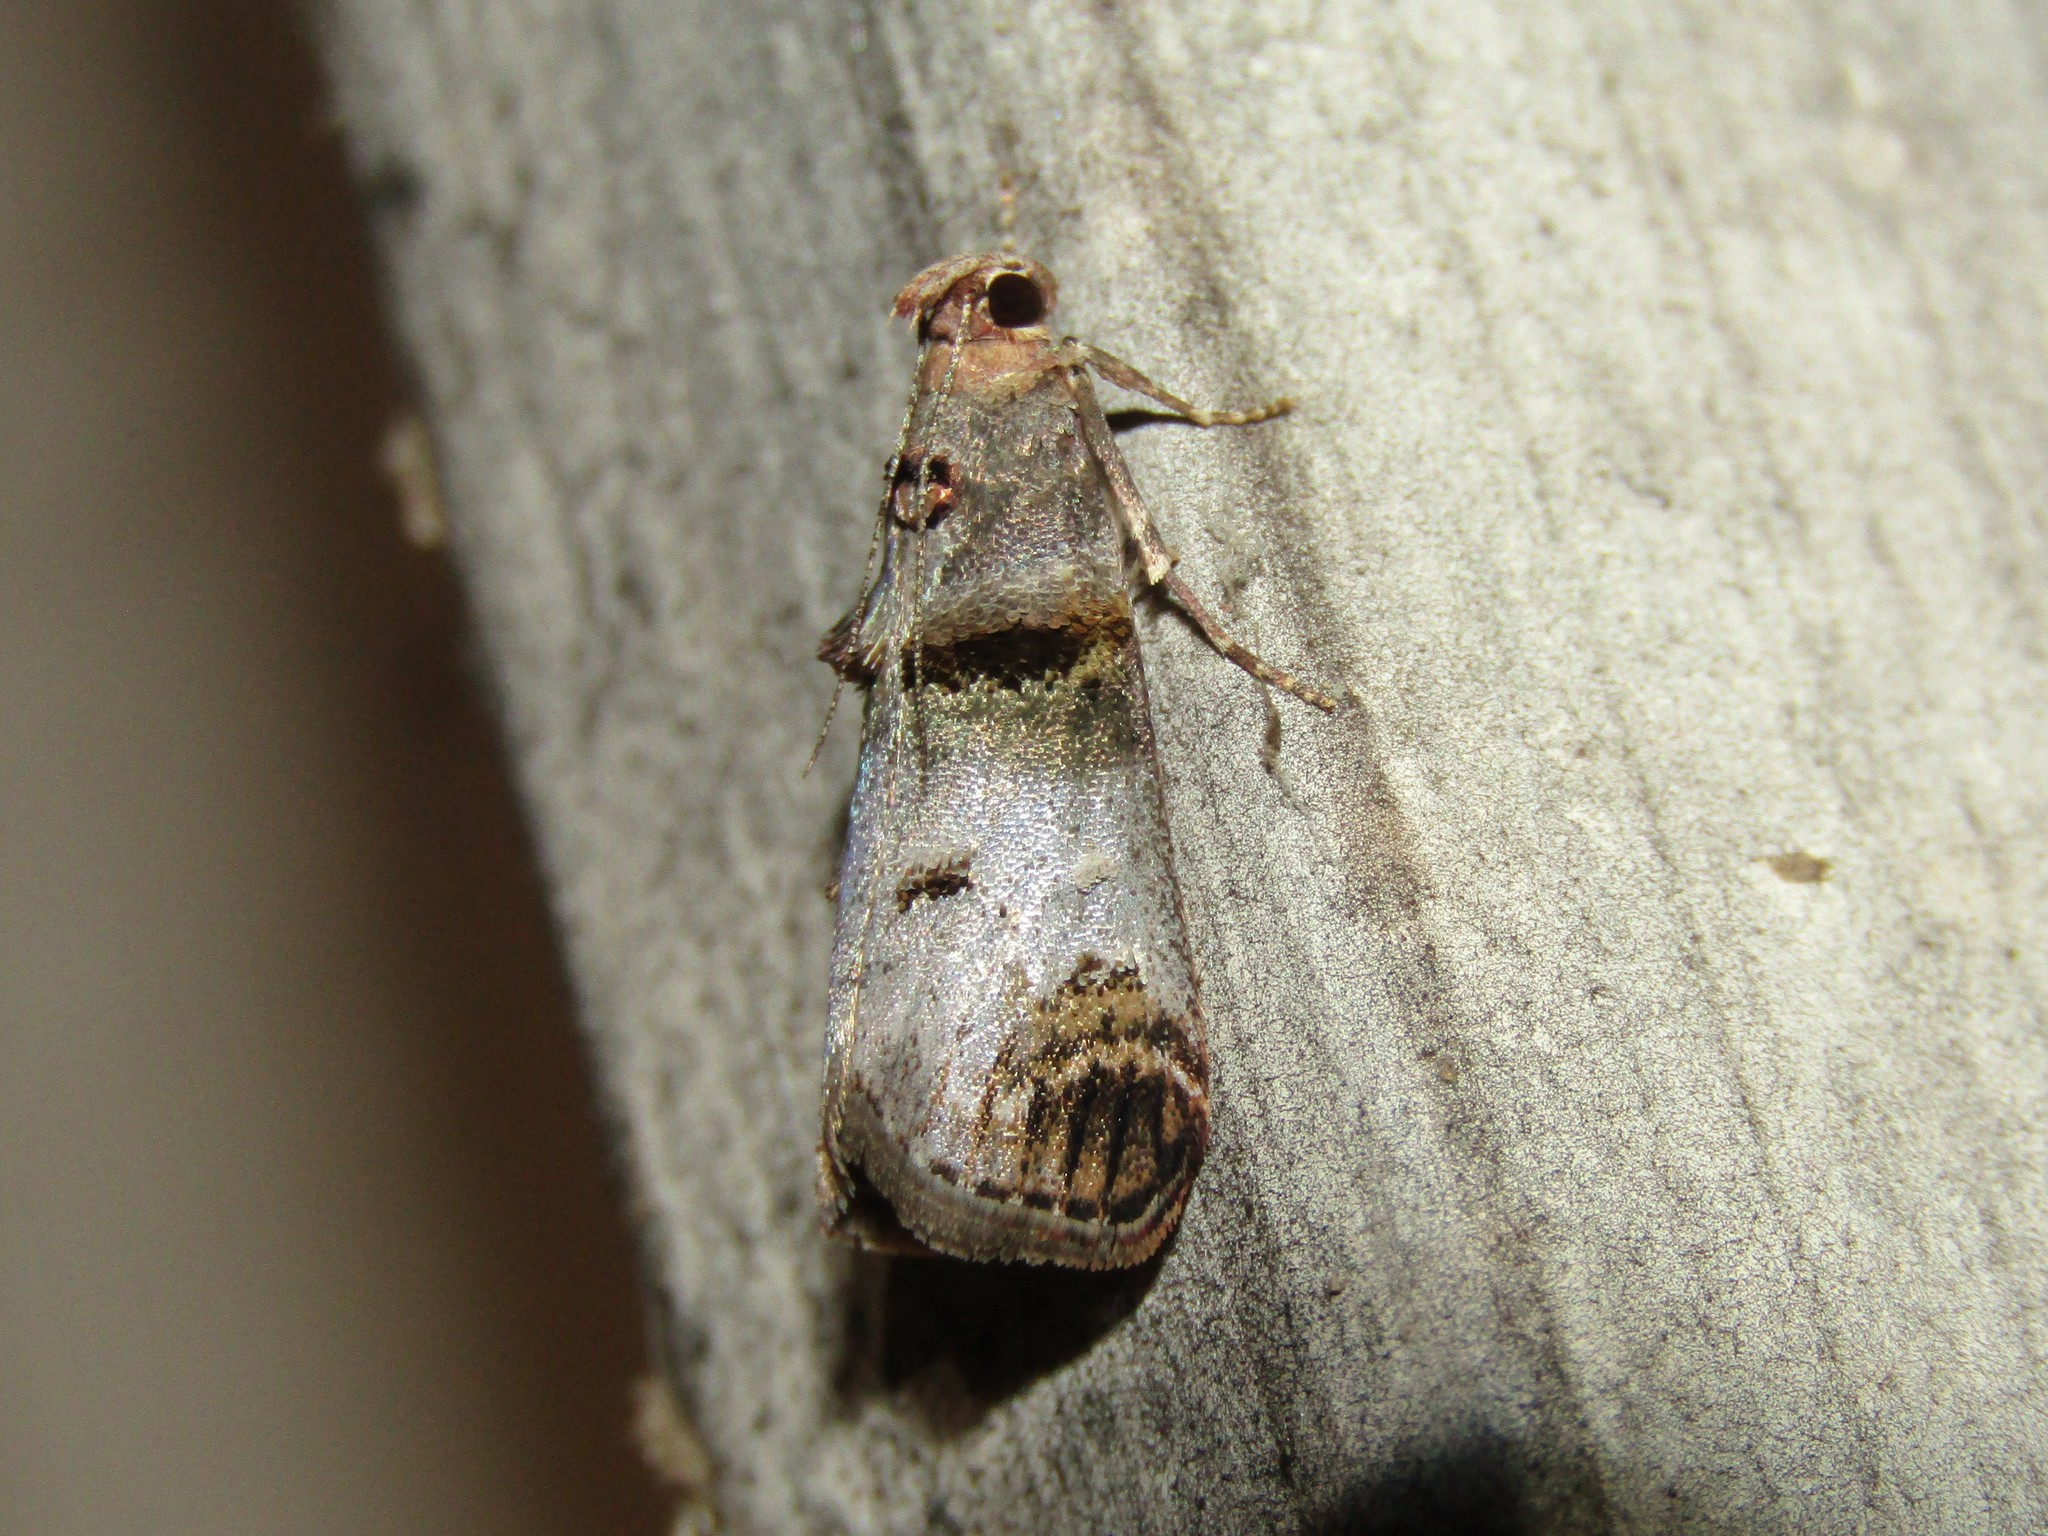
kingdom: Animalia
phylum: Arthropoda
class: Insecta
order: Lepidoptera
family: Pyralidae
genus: Oneida
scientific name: Oneida lunulalis
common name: Orange-tufted oneida moth
